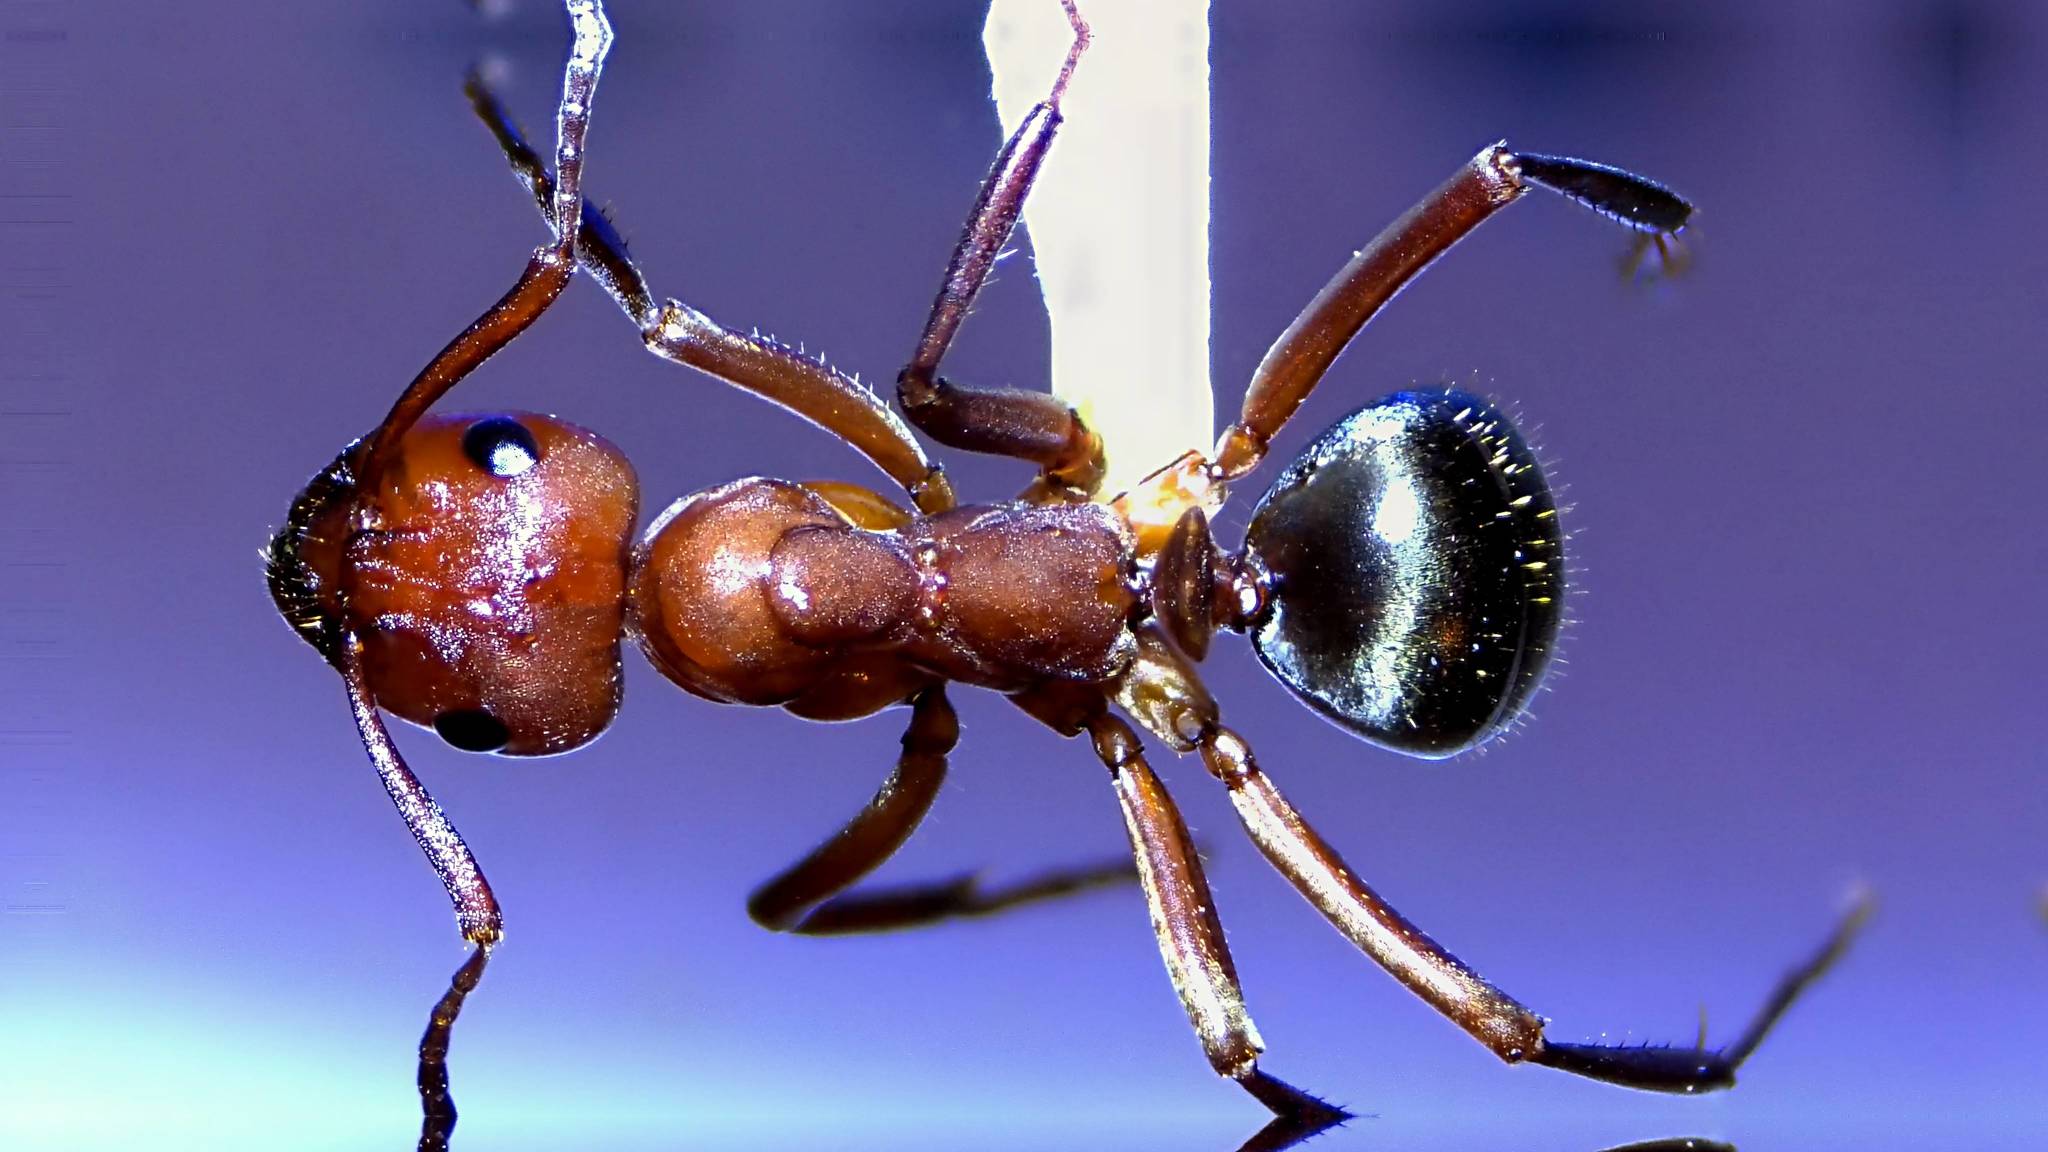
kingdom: Animalia
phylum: Arthropoda
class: Insecta
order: Hymenoptera
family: Formicidae
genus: Formica
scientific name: Formica rubicunda
